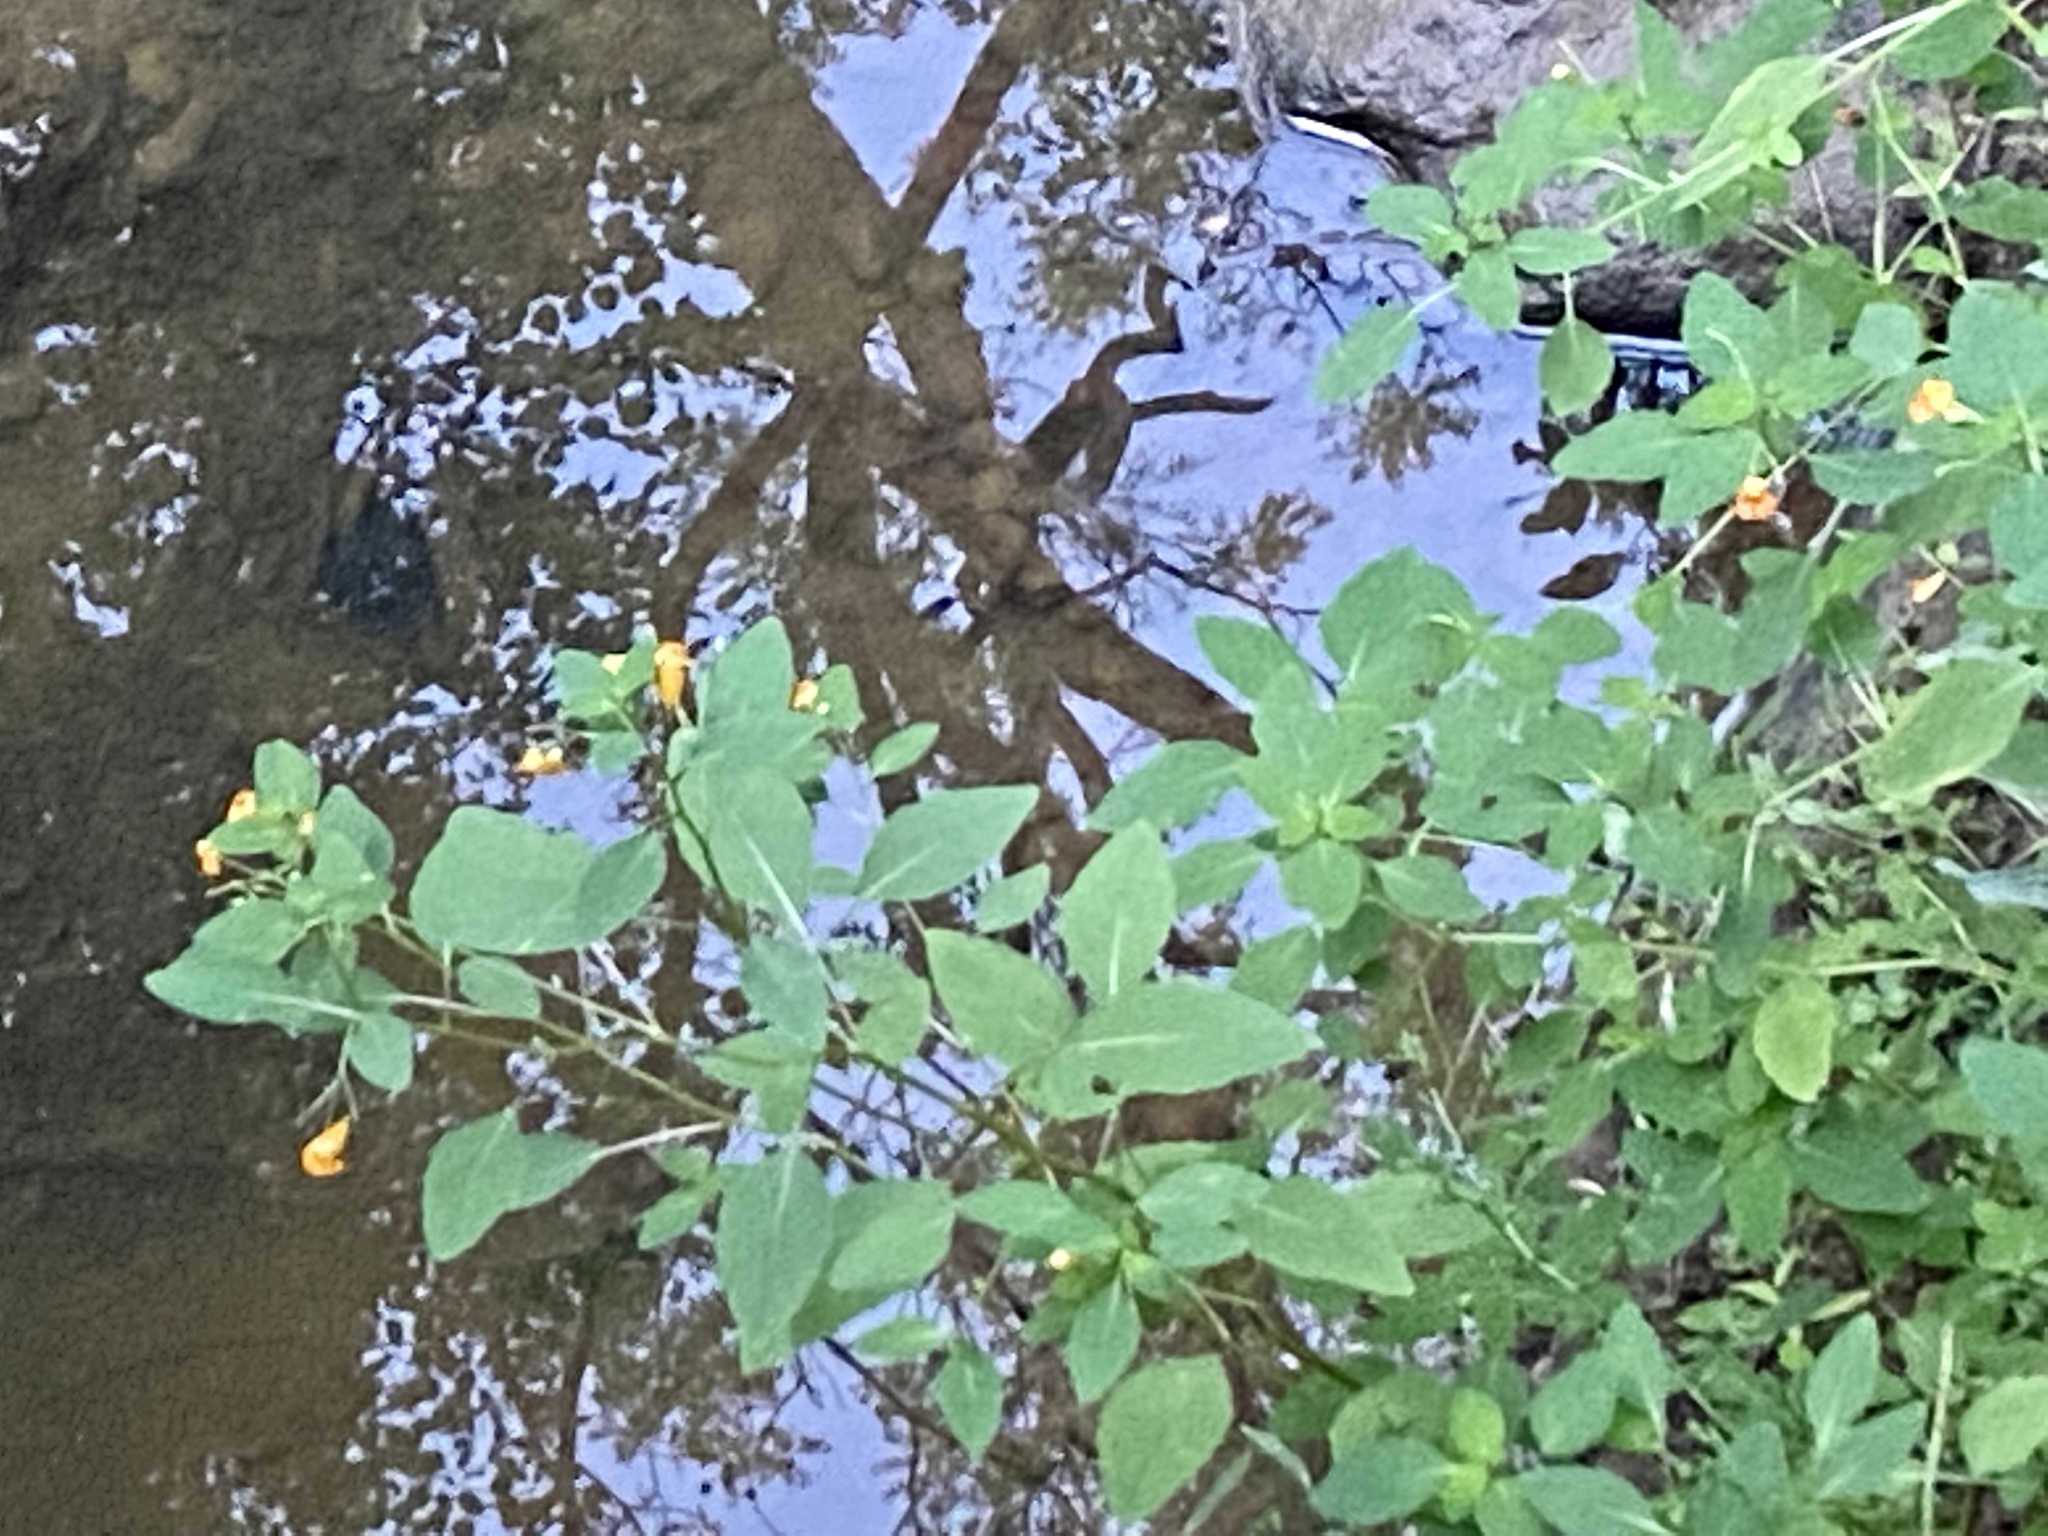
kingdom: Plantae
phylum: Tracheophyta
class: Magnoliopsida
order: Ericales
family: Balsaminaceae
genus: Impatiens
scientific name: Impatiens capensis
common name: Orange balsam
